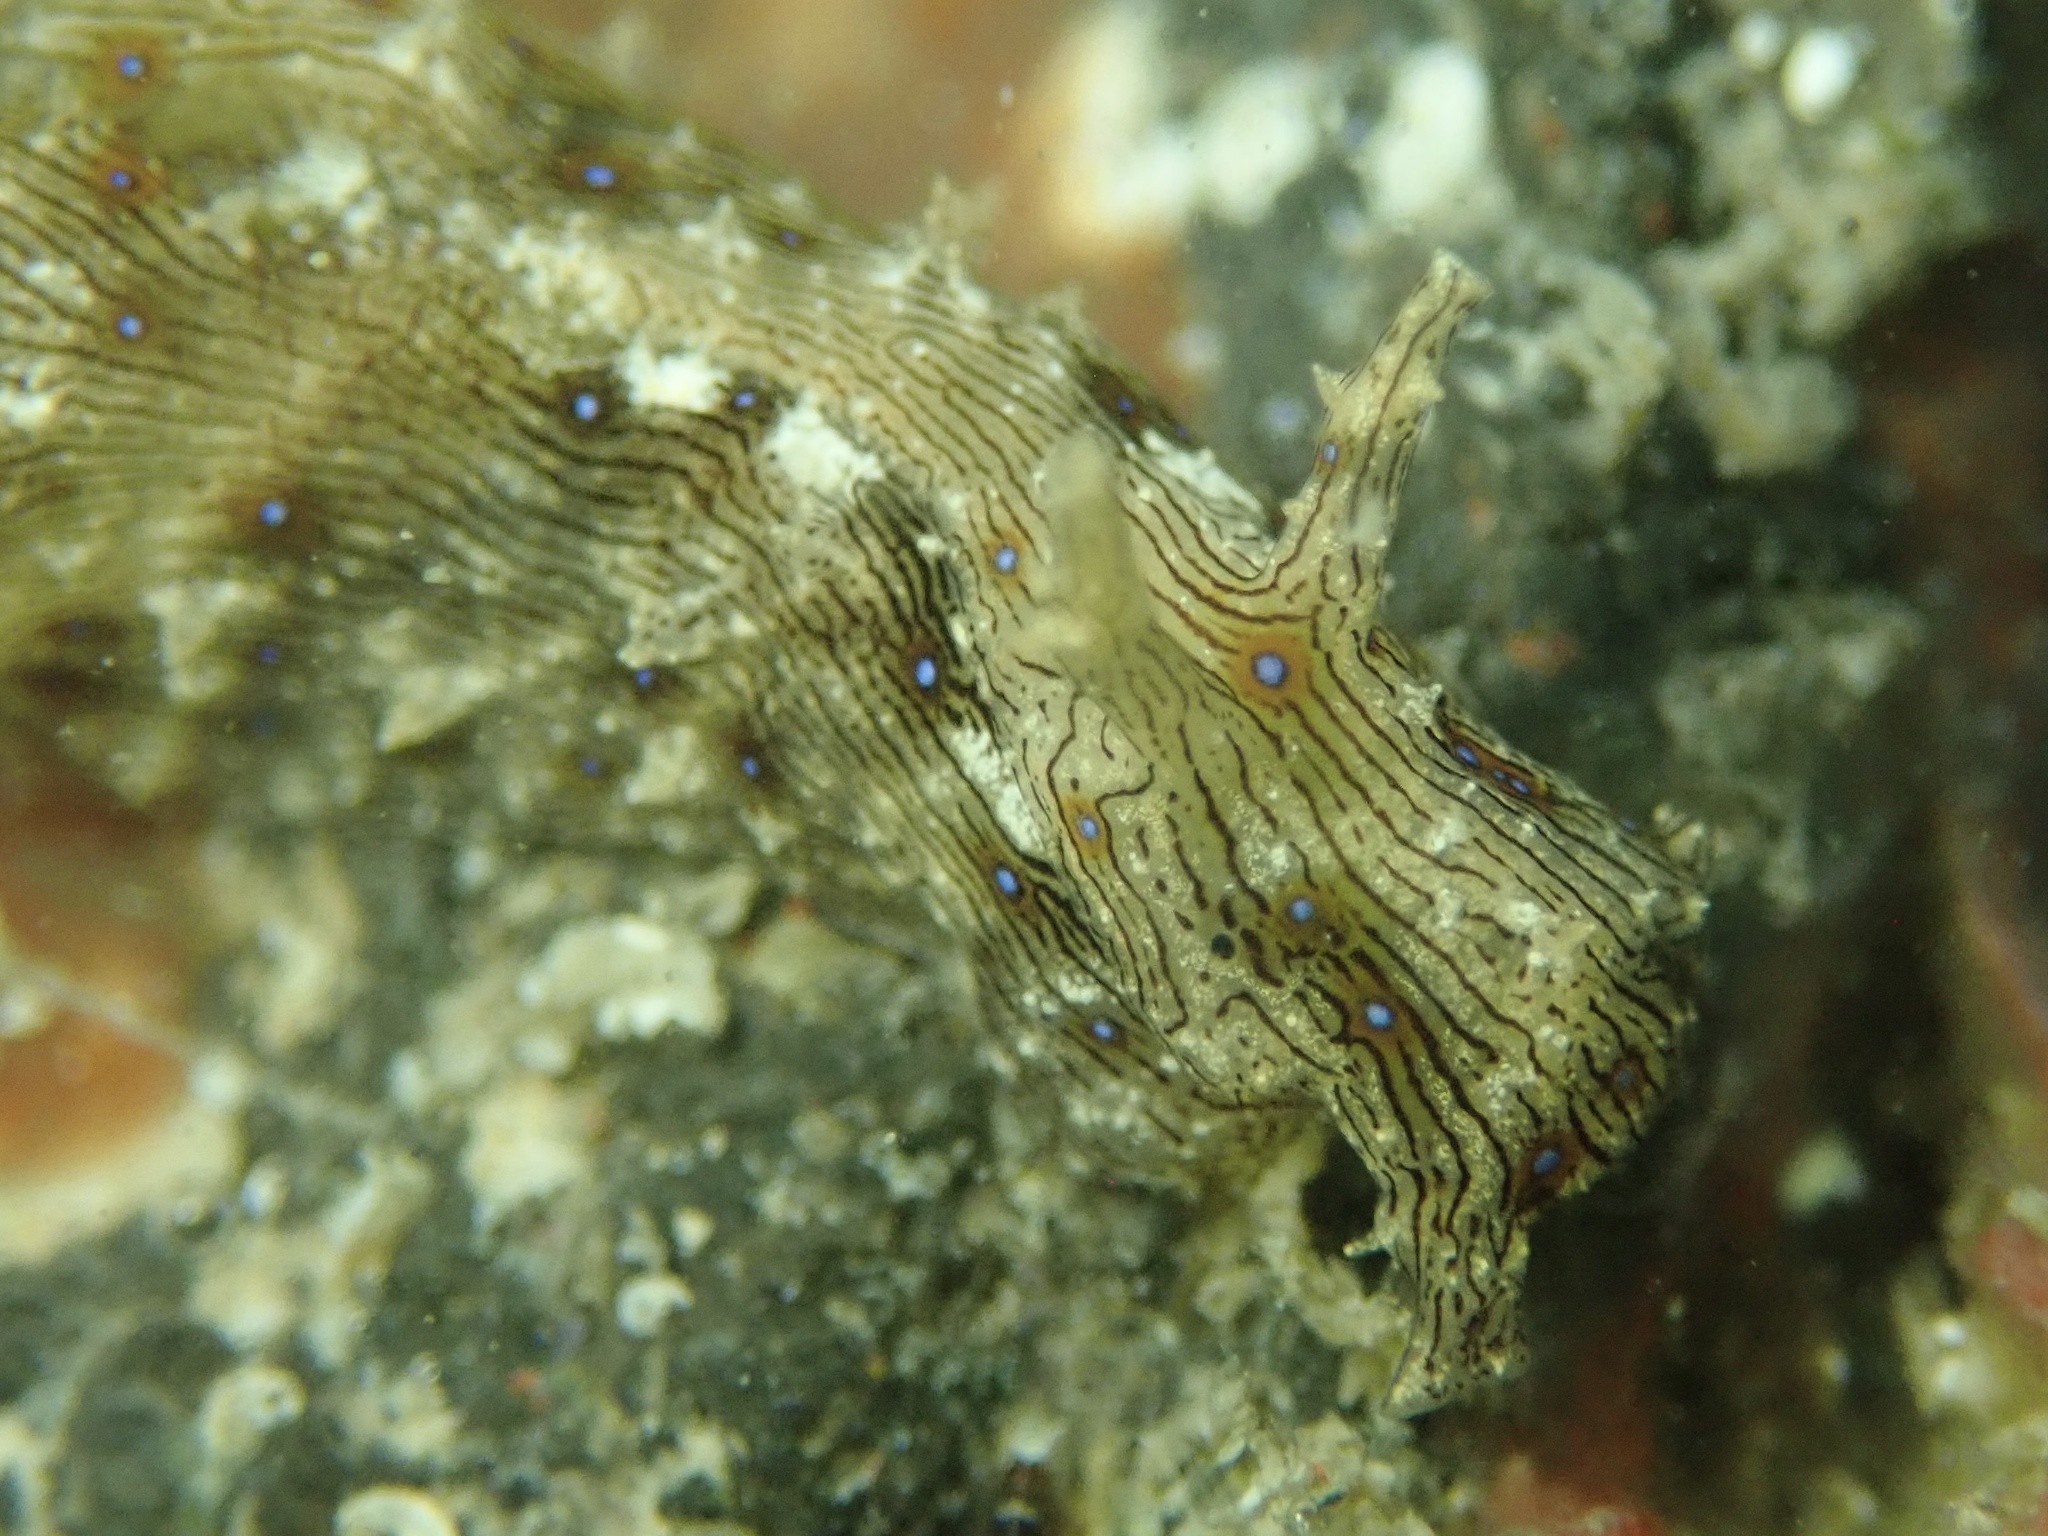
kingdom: Animalia
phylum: Mollusca
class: Gastropoda
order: Aplysiida
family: Aplysiidae
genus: Stylocheilus
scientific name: Stylocheilus rickettsi
